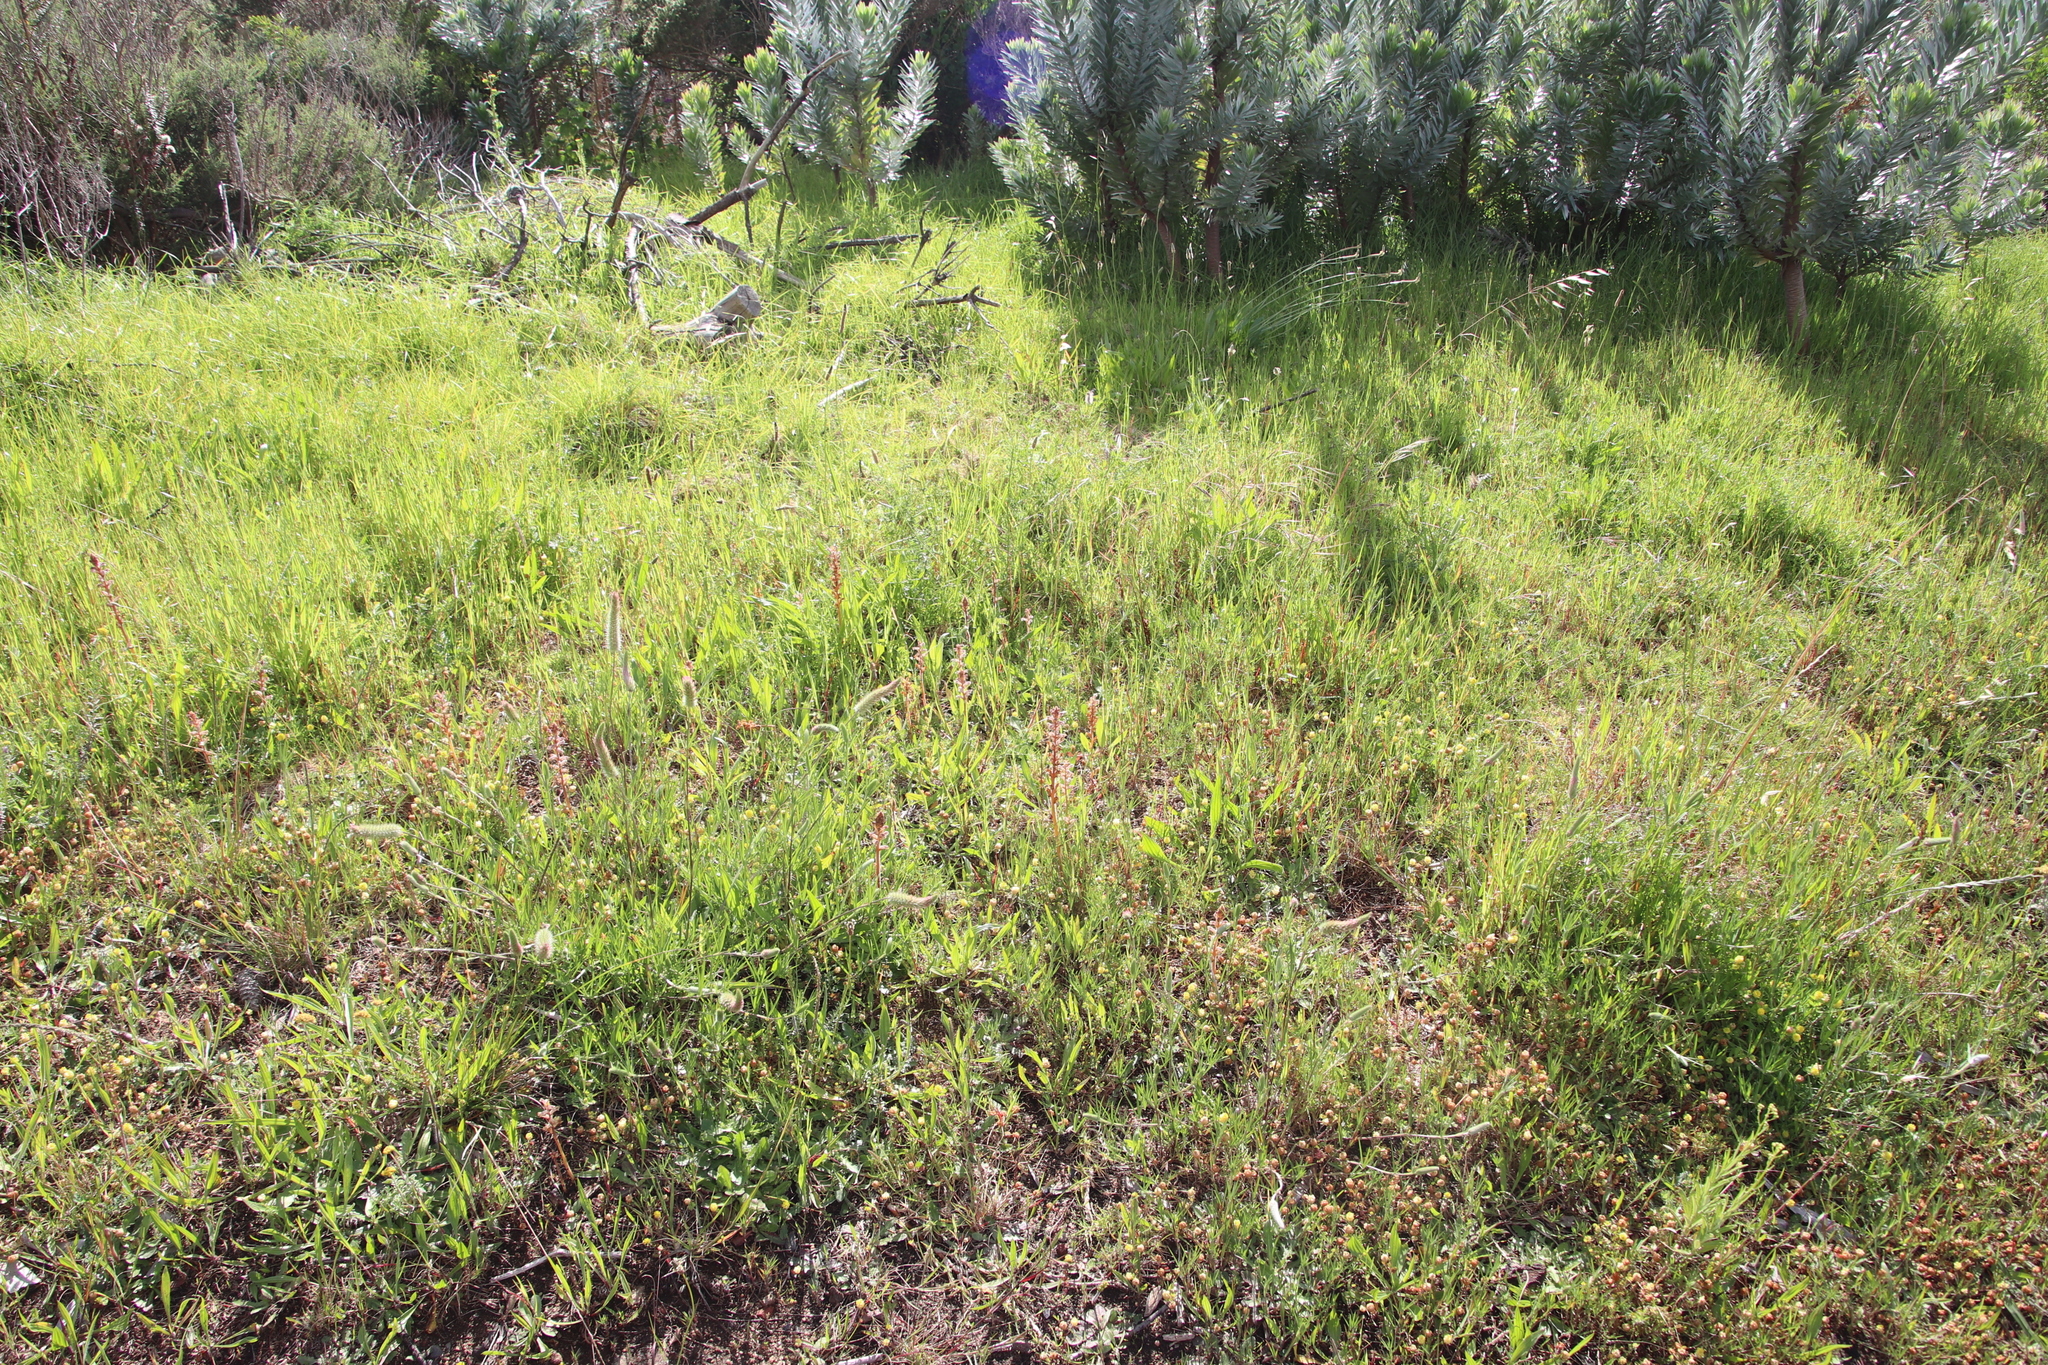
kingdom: Plantae
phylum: Tracheophyta
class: Magnoliopsida
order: Lamiales
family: Orobanchaceae
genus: Orobanche
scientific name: Orobanche minor
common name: Common broomrape
